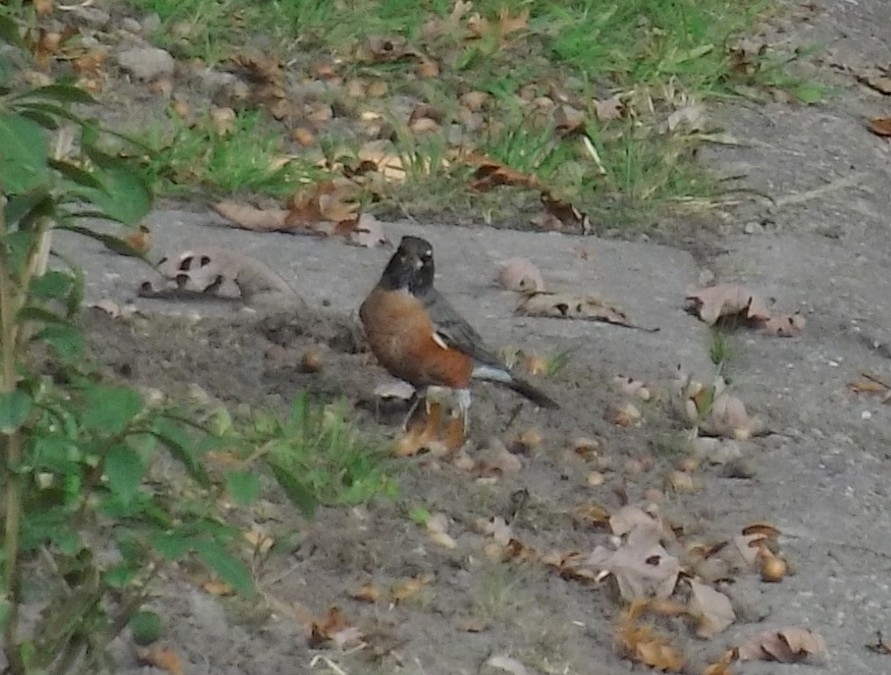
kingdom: Animalia
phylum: Chordata
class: Aves
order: Passeriformes
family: Turdidae
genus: Turdus
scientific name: Turdus migratorius
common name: American robin
